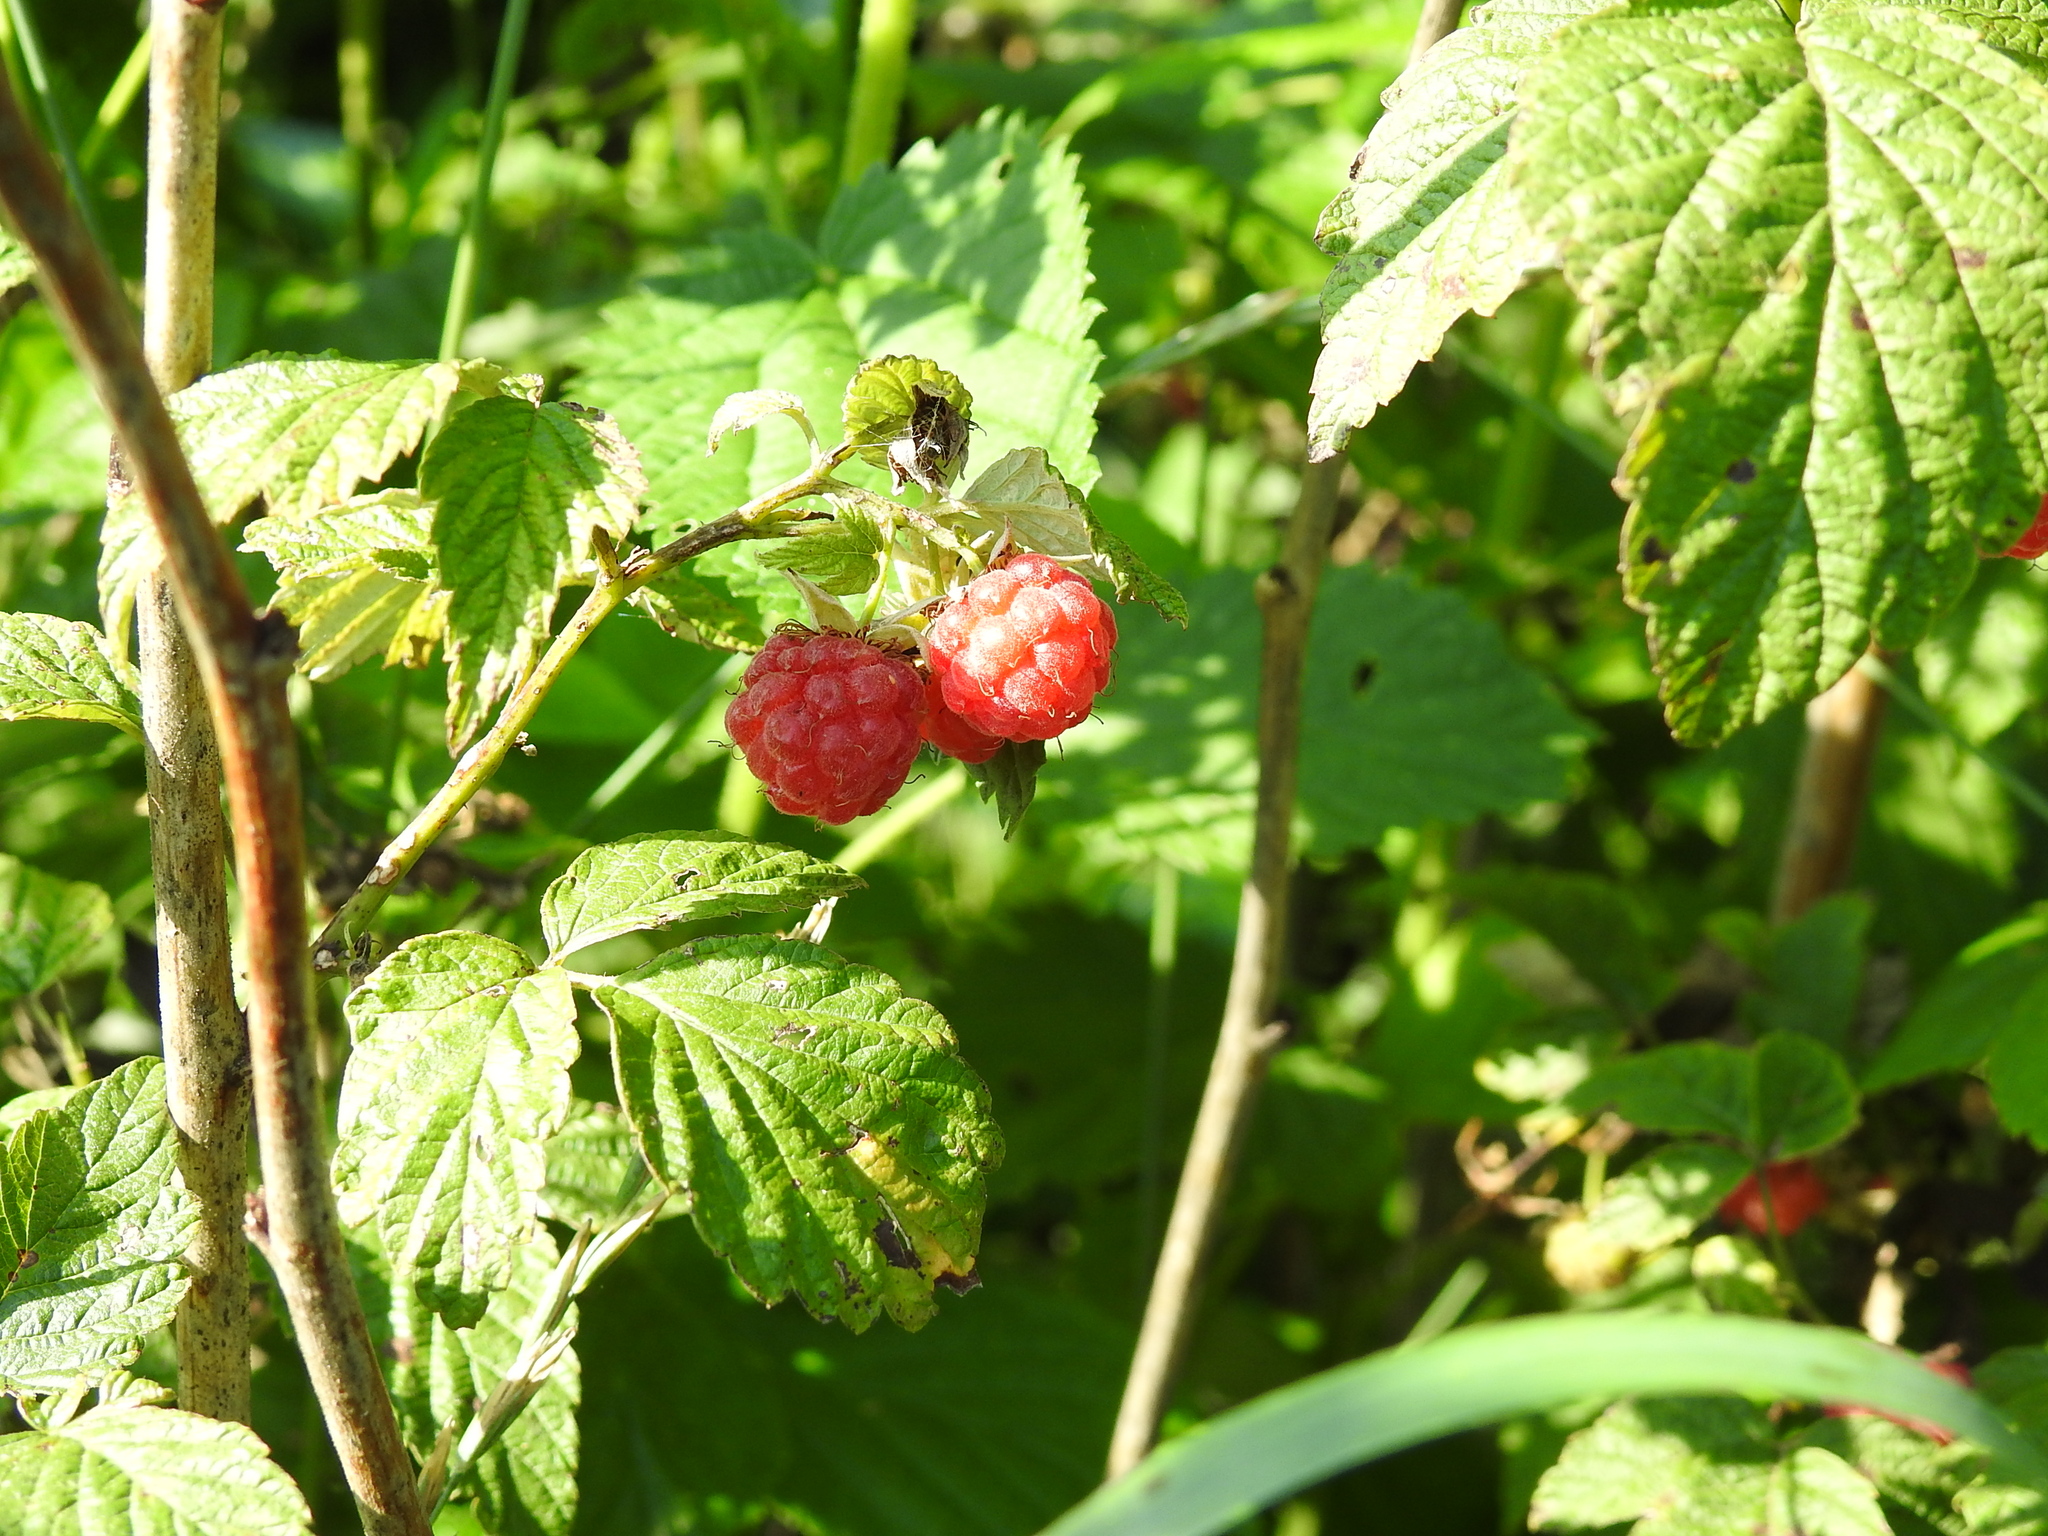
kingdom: Plantae
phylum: Tracheophyta
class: Magnoliopsida
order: Rosales
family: Rosaceae
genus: Rubus
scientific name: Rubus idaeus
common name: Raspberry
